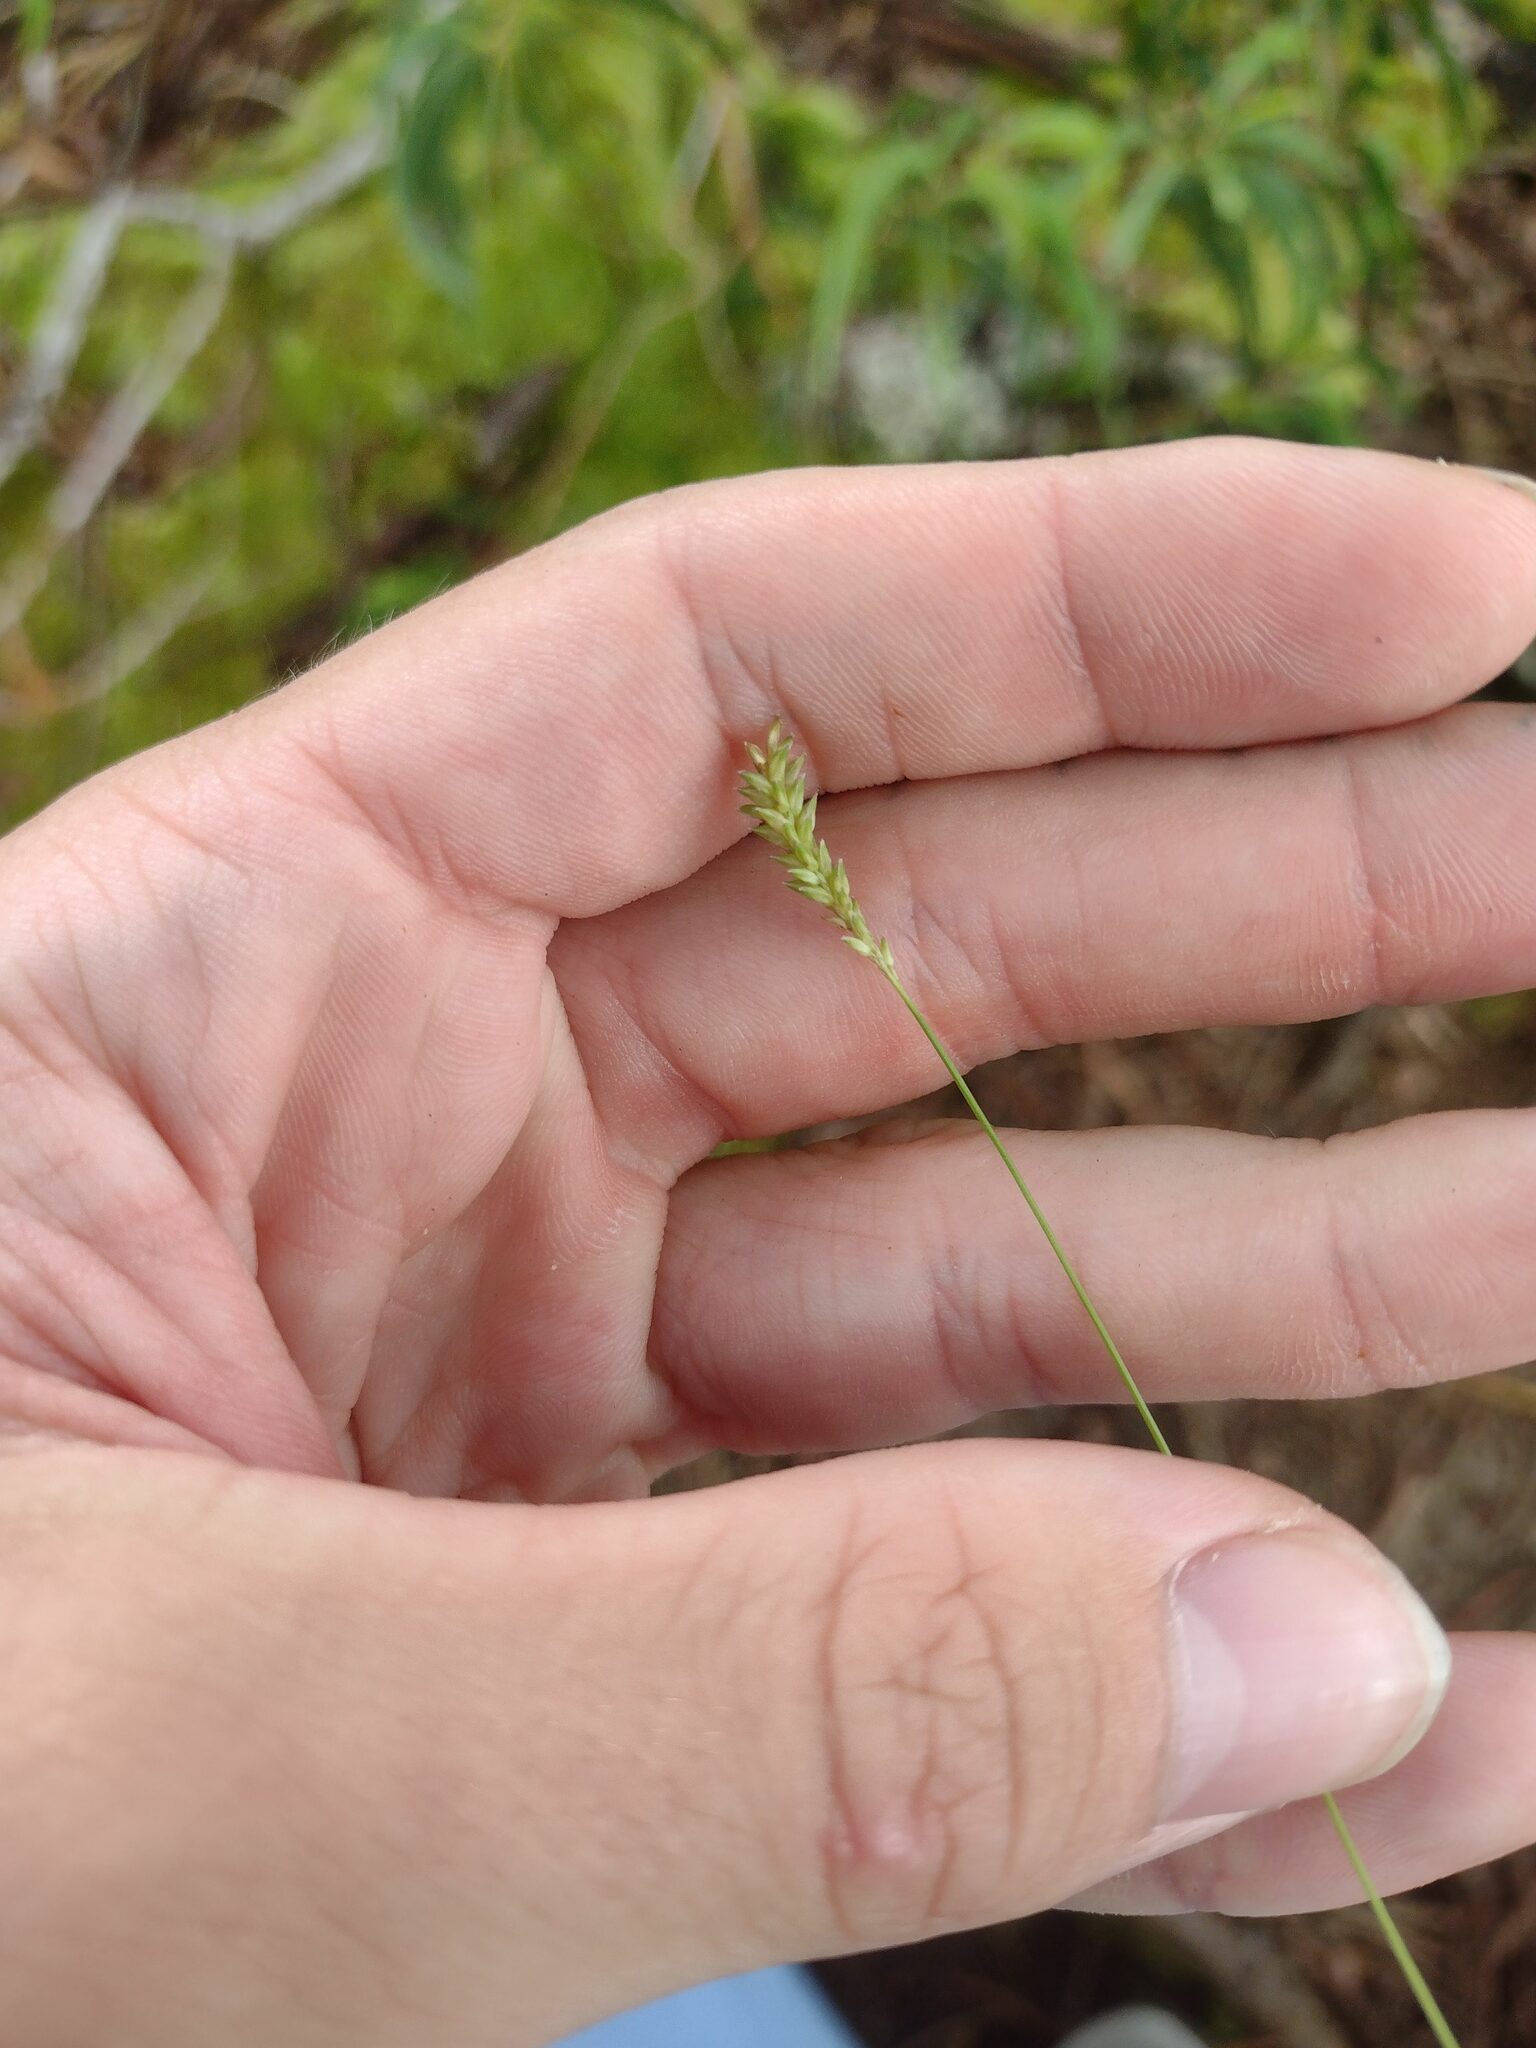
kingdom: Plantae
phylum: Tracheophyta
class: Liliopsida
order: Poales
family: Poaceae
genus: Sacciolepis
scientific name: Sacciolepis indica
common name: Glenwoodgrass
